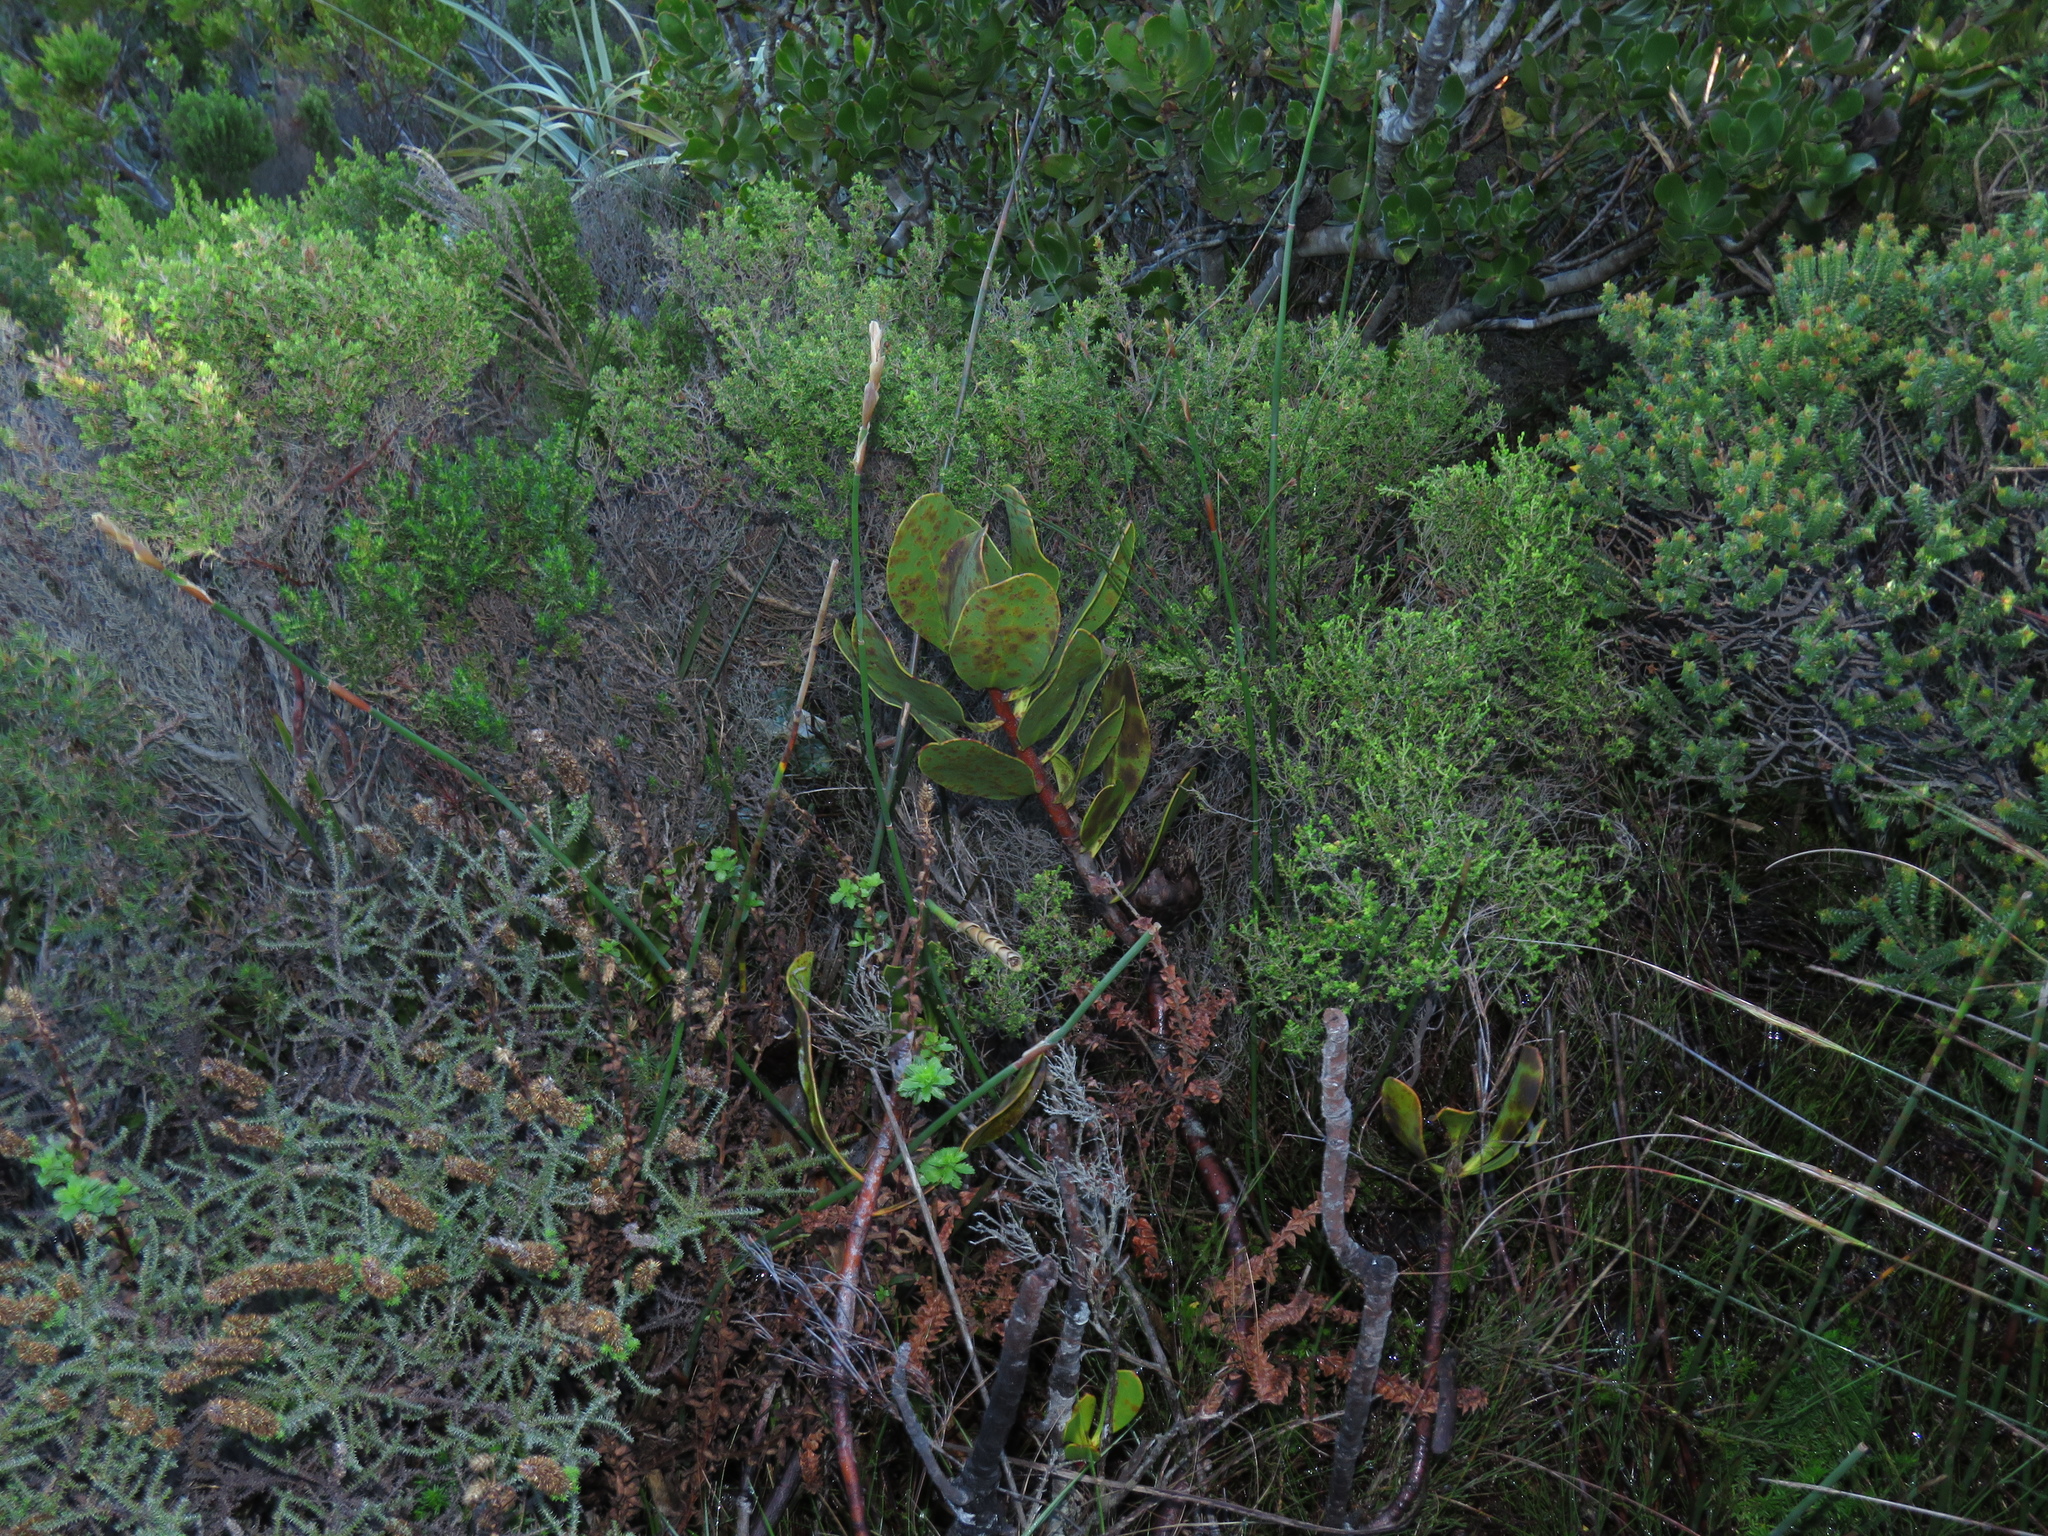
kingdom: Plantae
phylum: Tracheophyta
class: Magnoliopsida
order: Proteales
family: Proteaceae
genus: Protea
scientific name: Protea speciosa
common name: Brown-beard sugarbush
